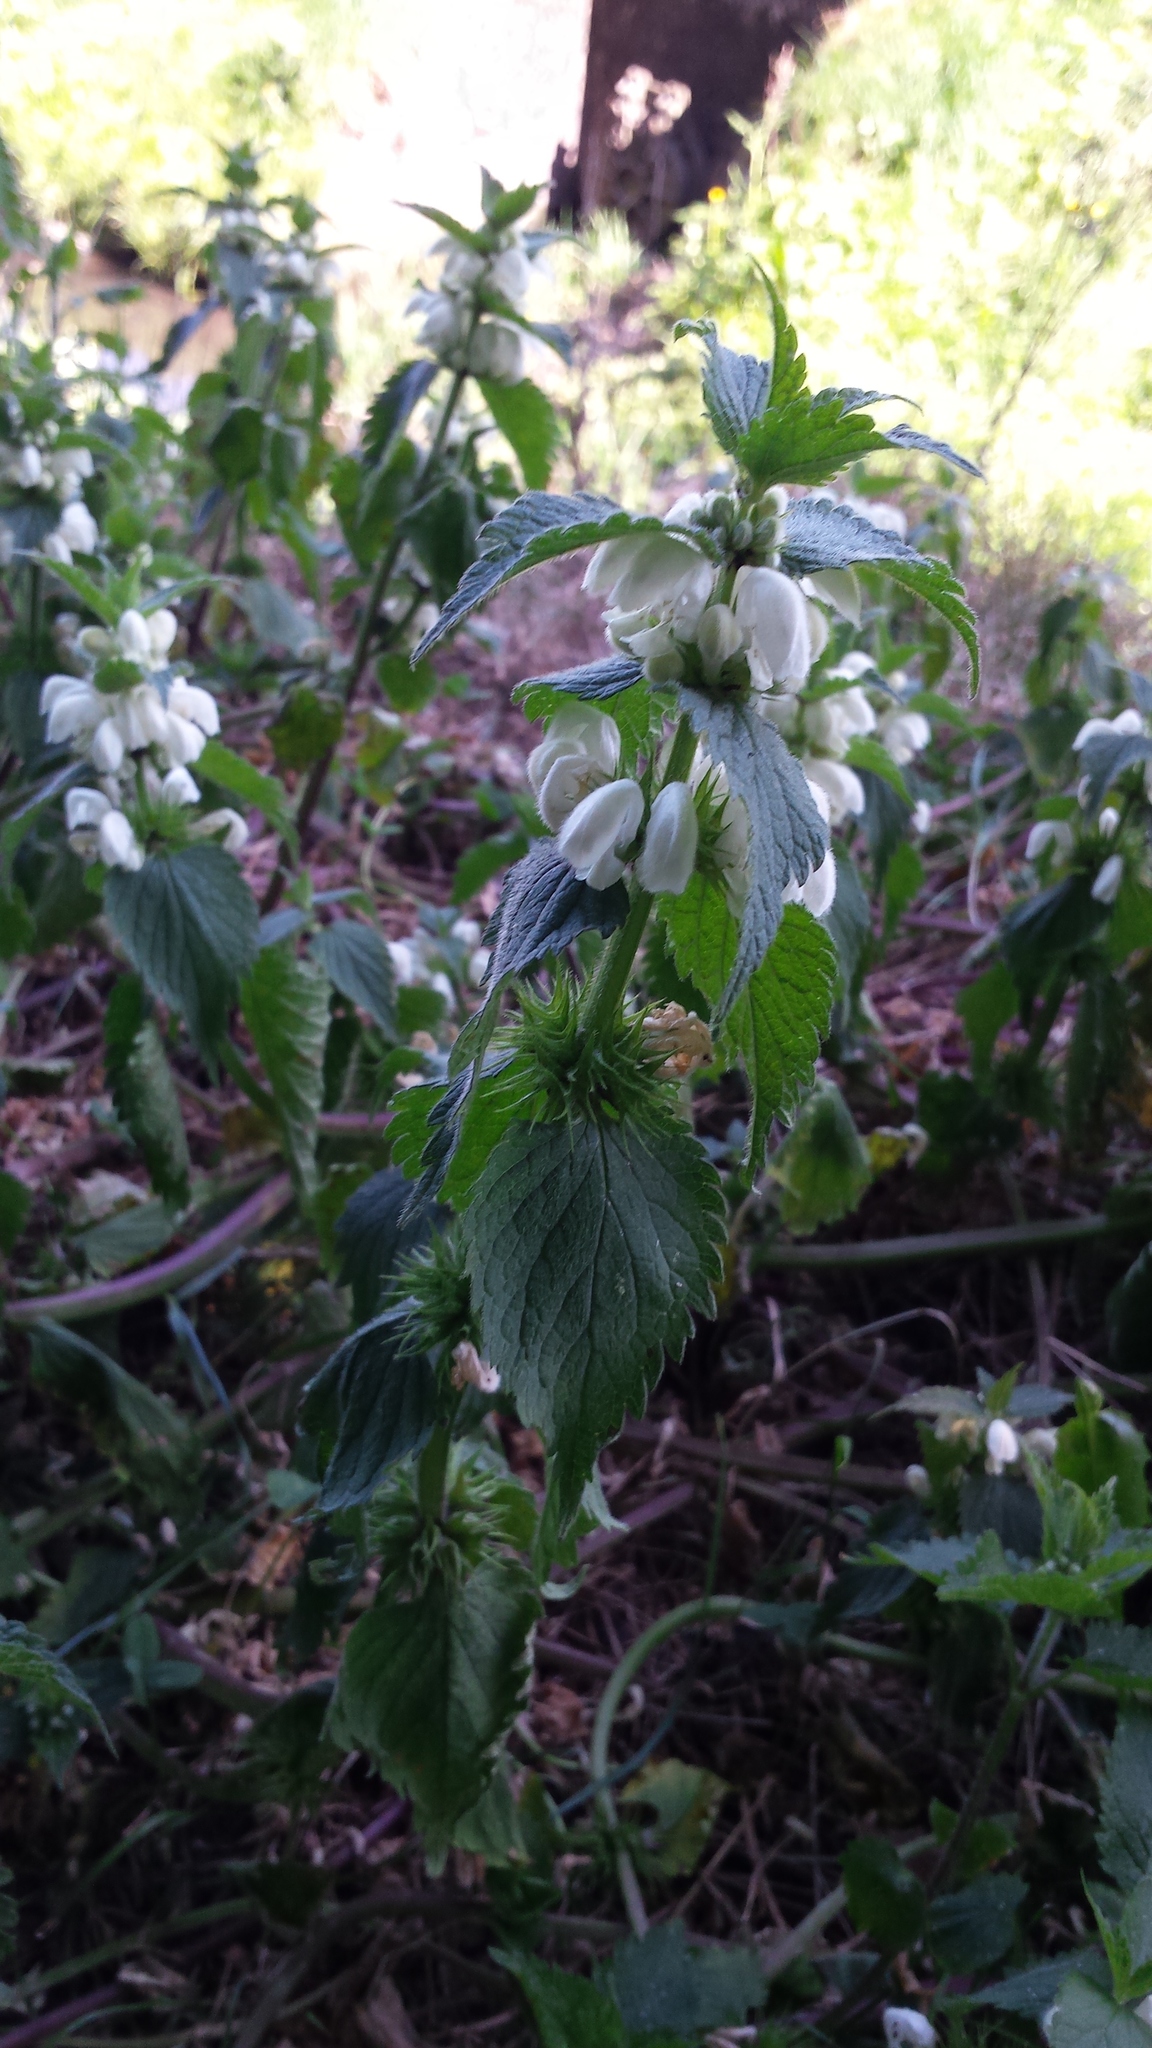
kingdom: Plantae
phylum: Tracheophyta
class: Magnoliopsida
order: Lamiales
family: Lamiaceae
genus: Lamium
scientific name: Lamium album
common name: White dead-nettle
